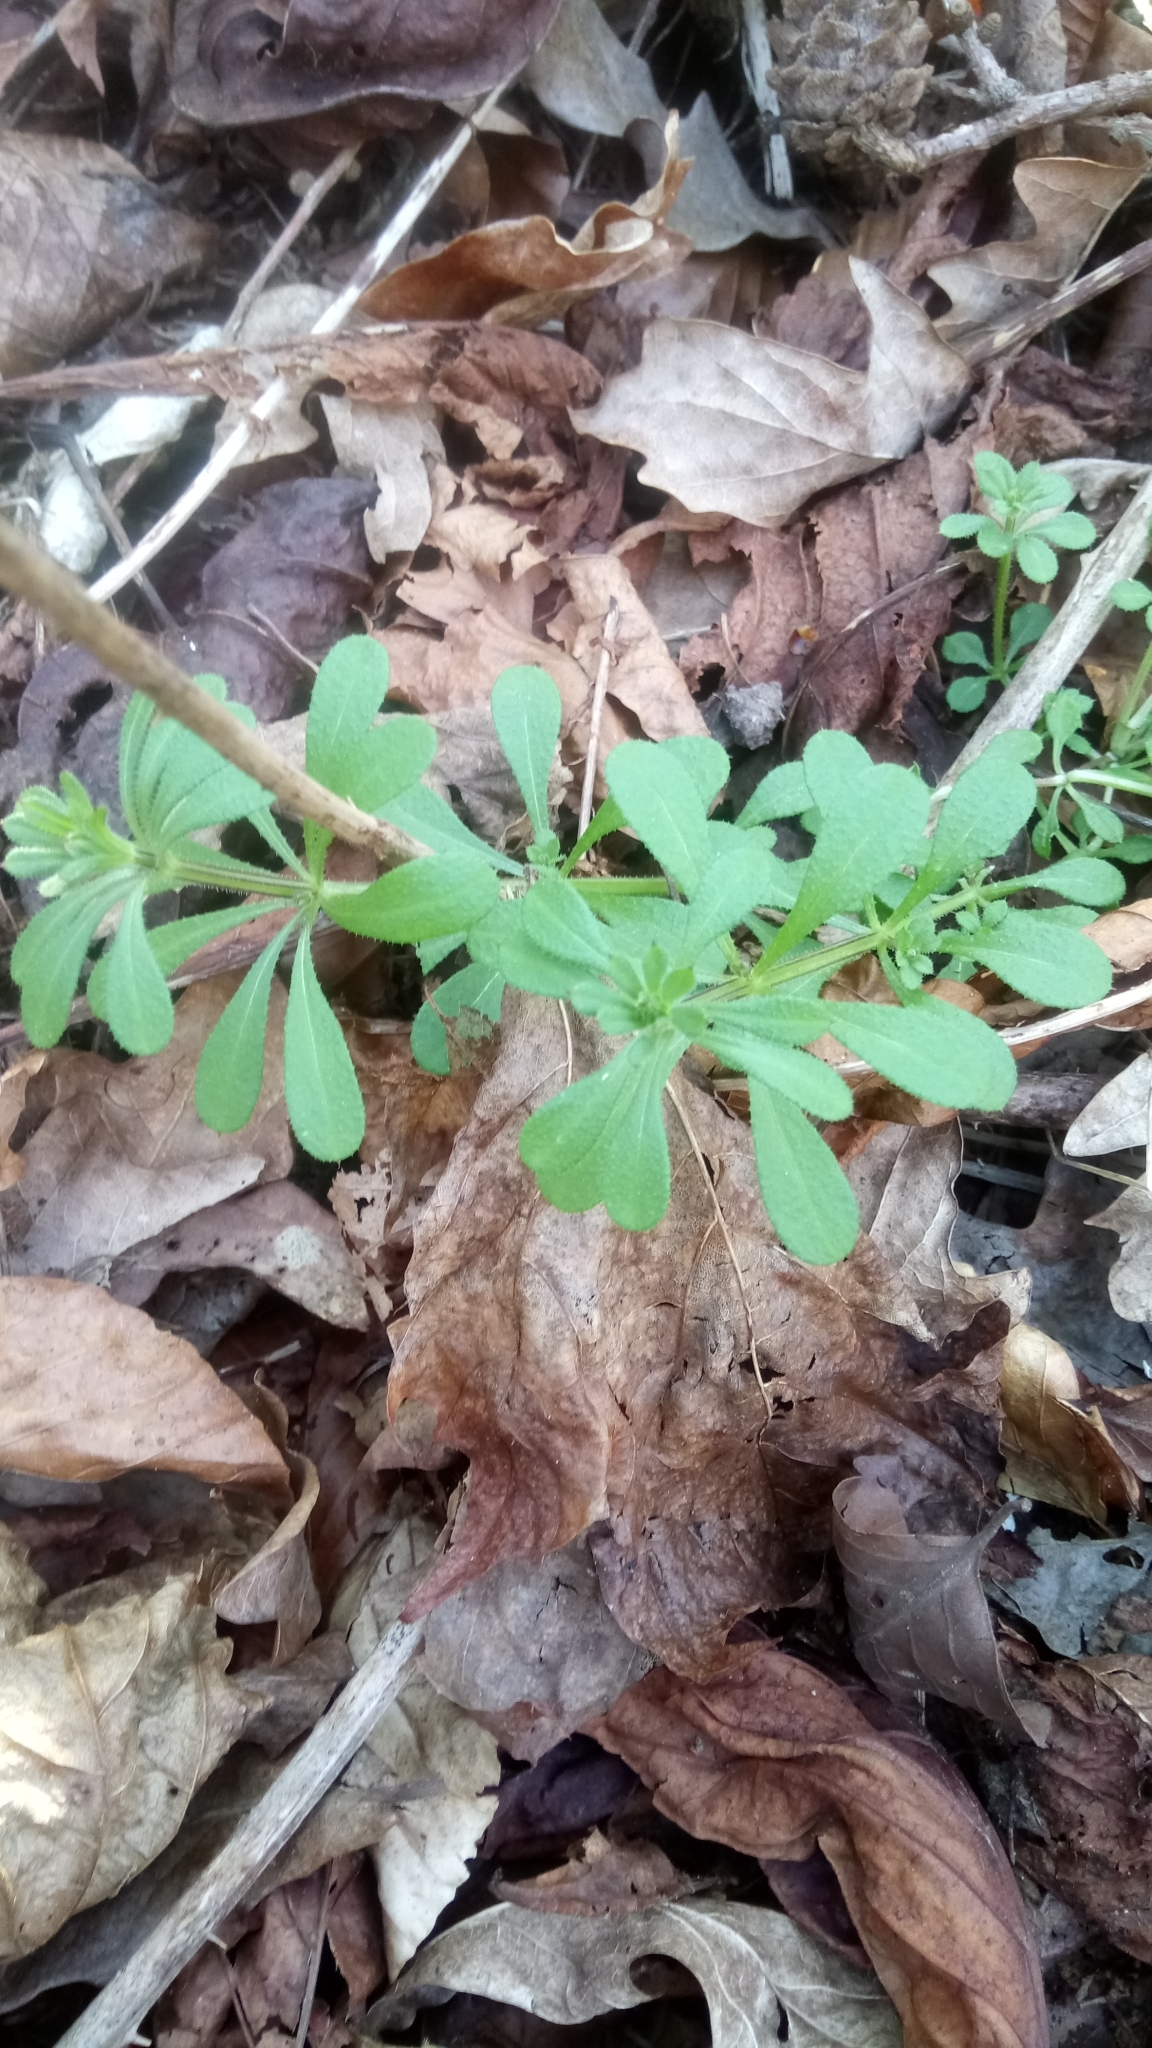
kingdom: Plantae
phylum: Tracheophyta
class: Magnoliopsida
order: Gentianales
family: Rubiaceae
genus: Galium
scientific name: Galium aparine
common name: Cleavers
